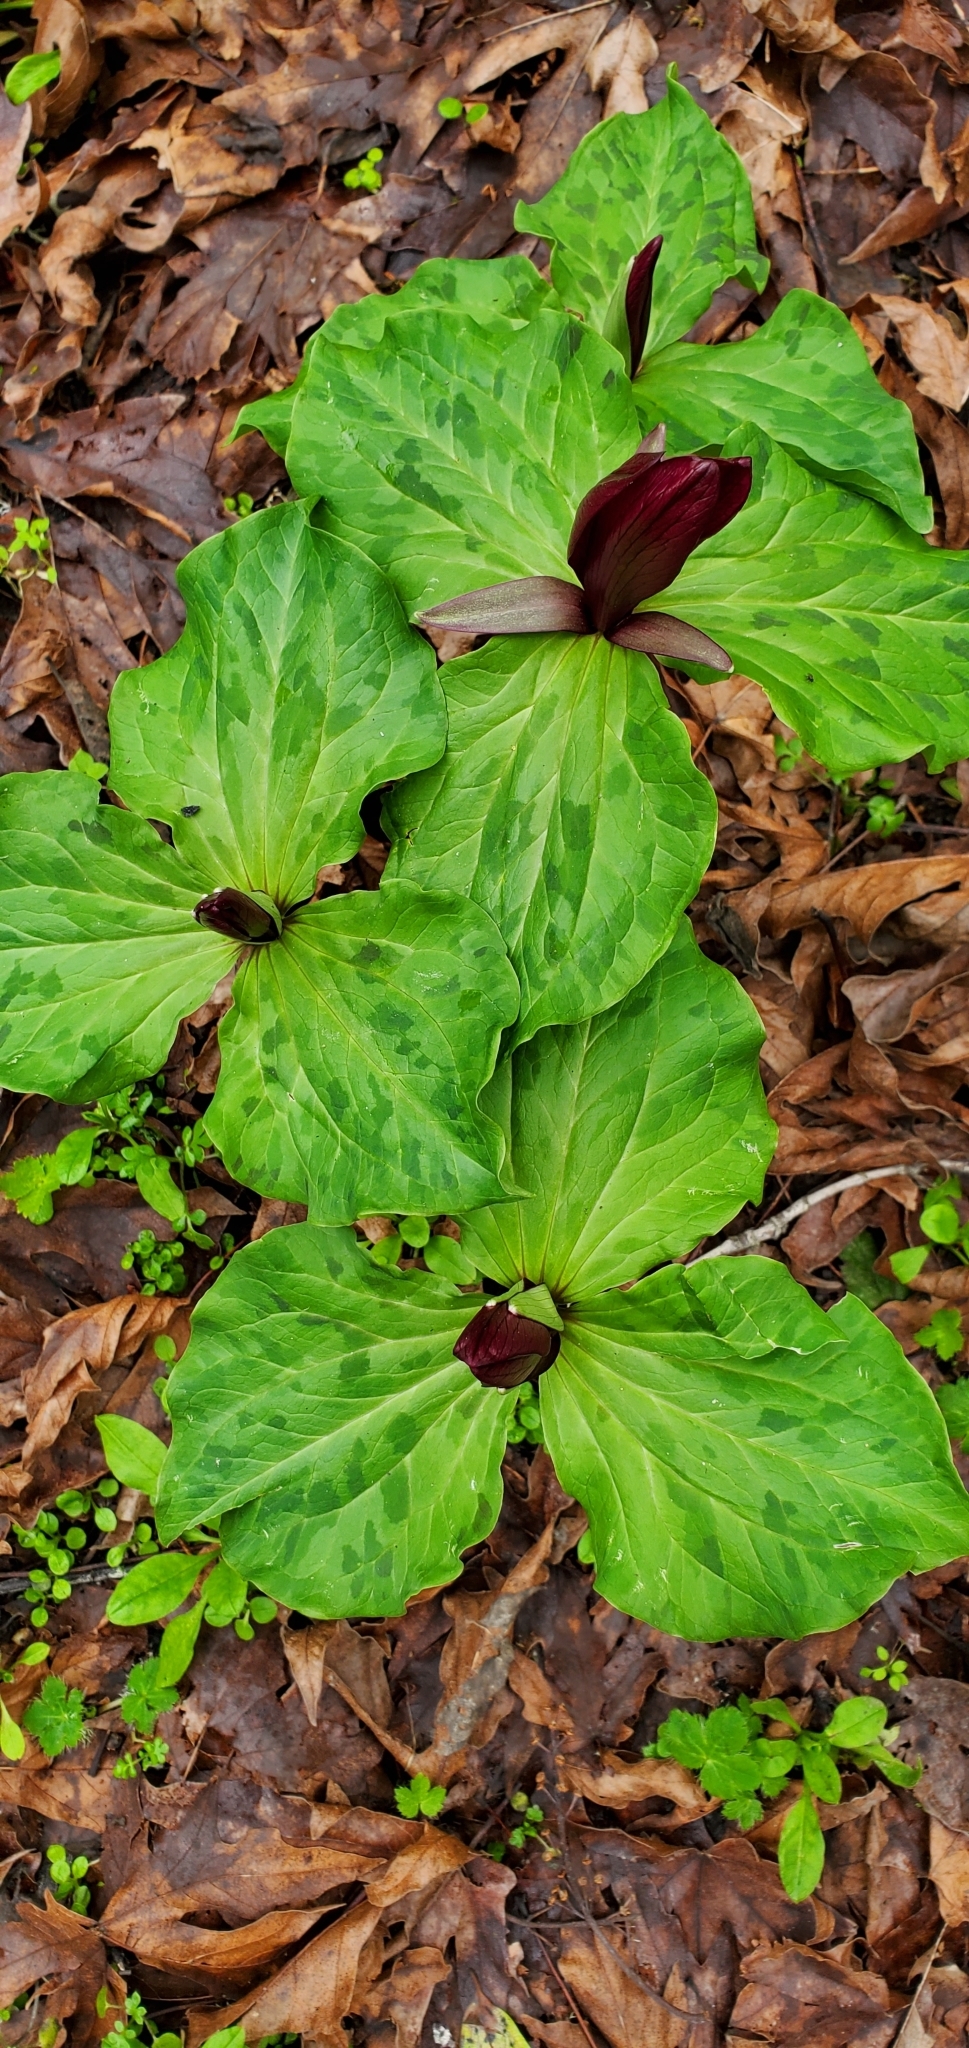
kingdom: Plantae
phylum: Tracheophyta
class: Liliopsida
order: Liliales
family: Melanthiaceae
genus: Trillium
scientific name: Trillium chloropetalum
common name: Giant trillium
